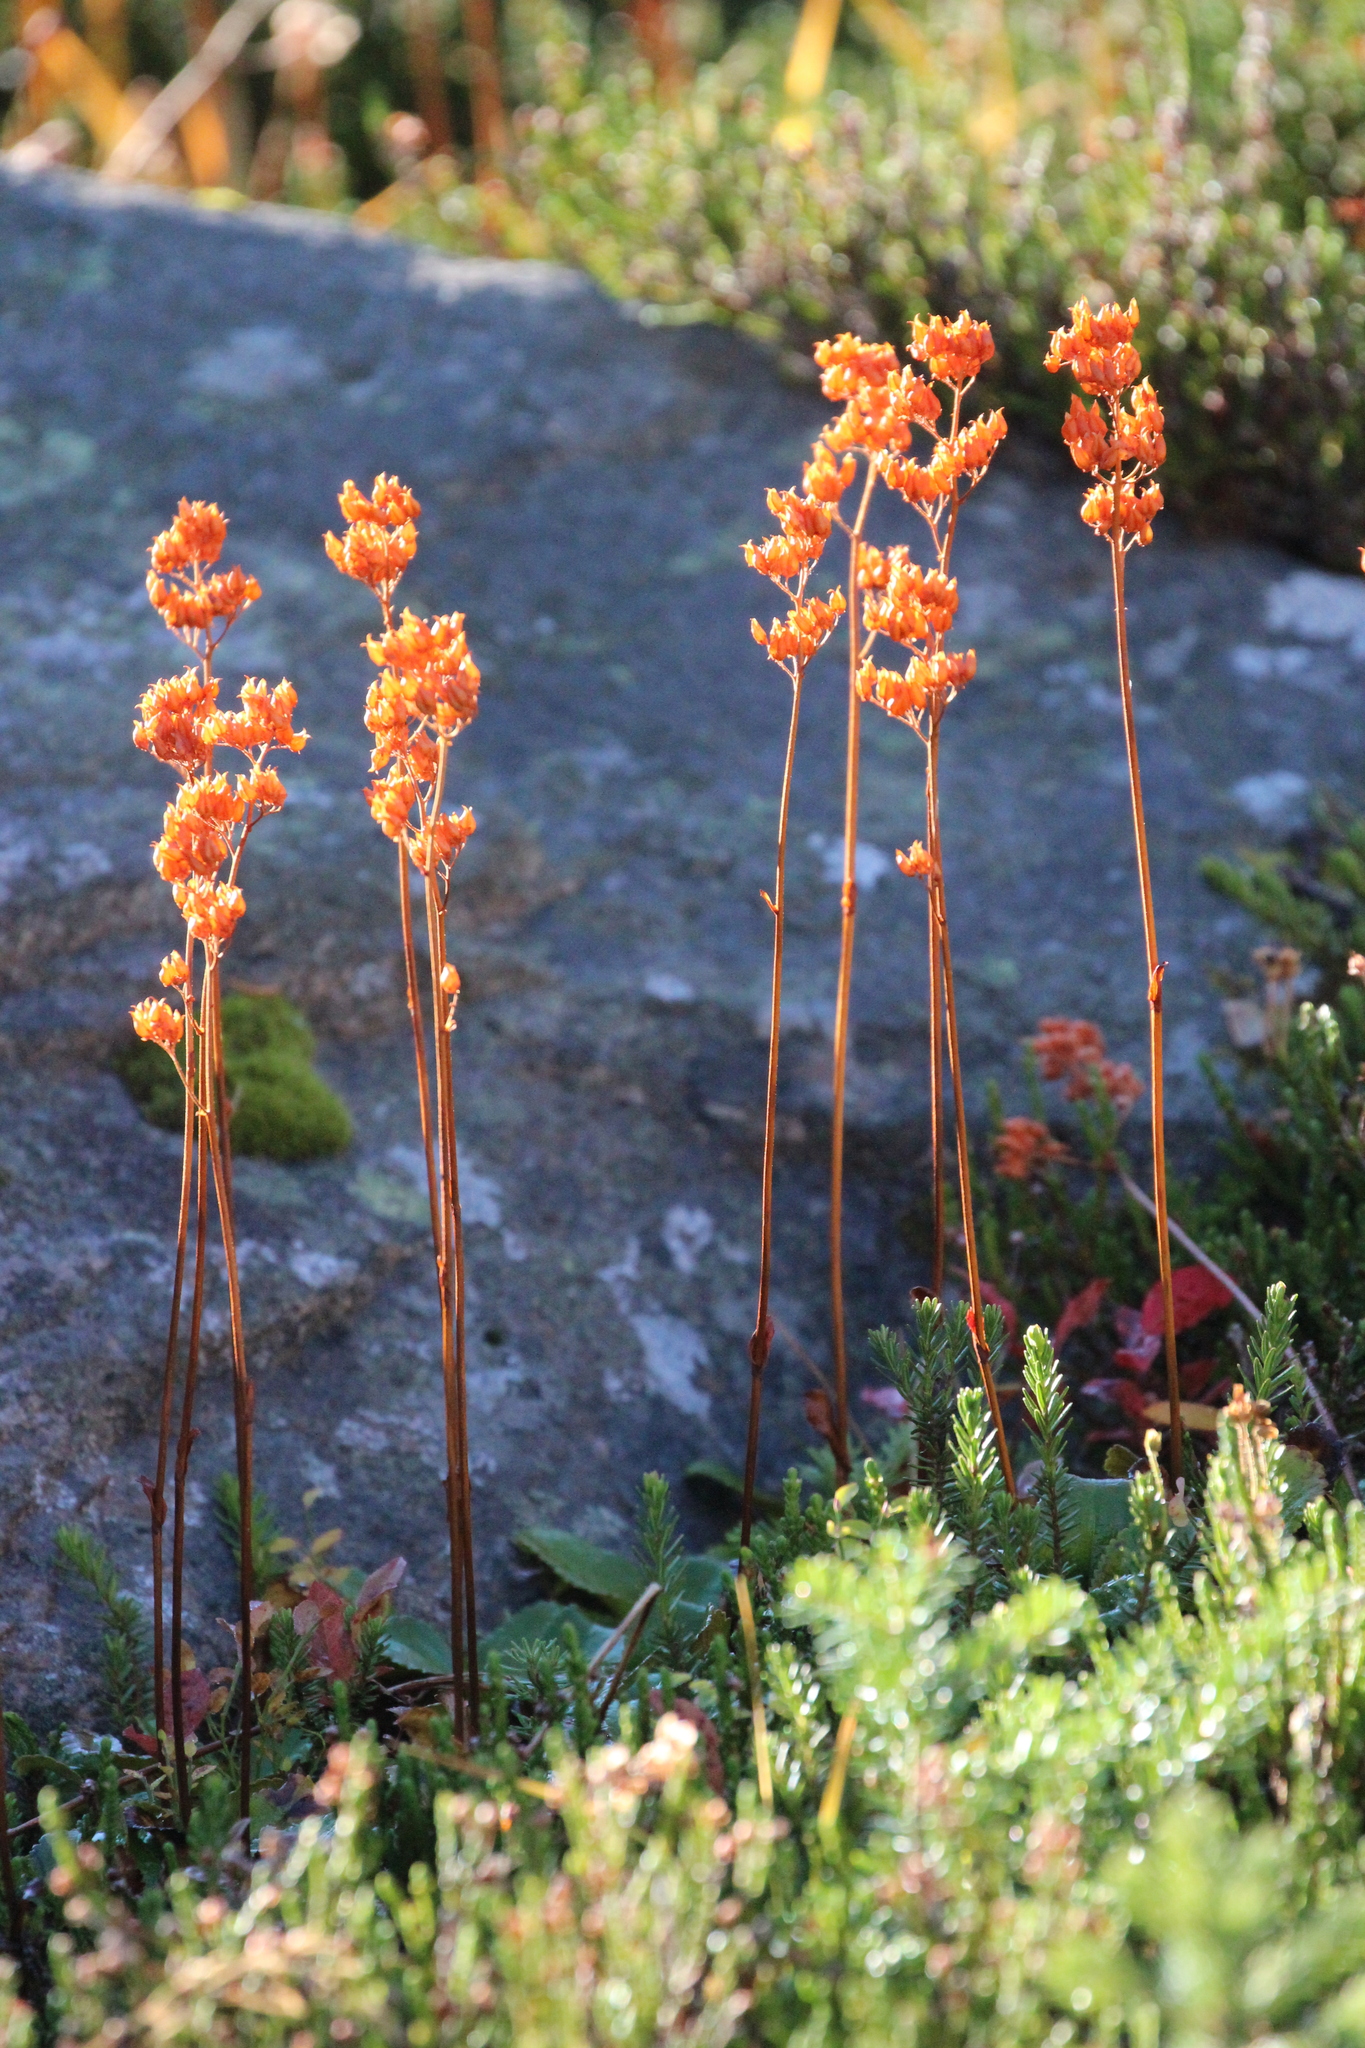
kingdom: Plantae
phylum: Tracheophyta
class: Magnoliopsida
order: Saxifragales
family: Saxifragaceae
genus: Leptarrhena
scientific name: Leptarrhena pyrolifolia
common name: Leatherleaf-saxifrage
